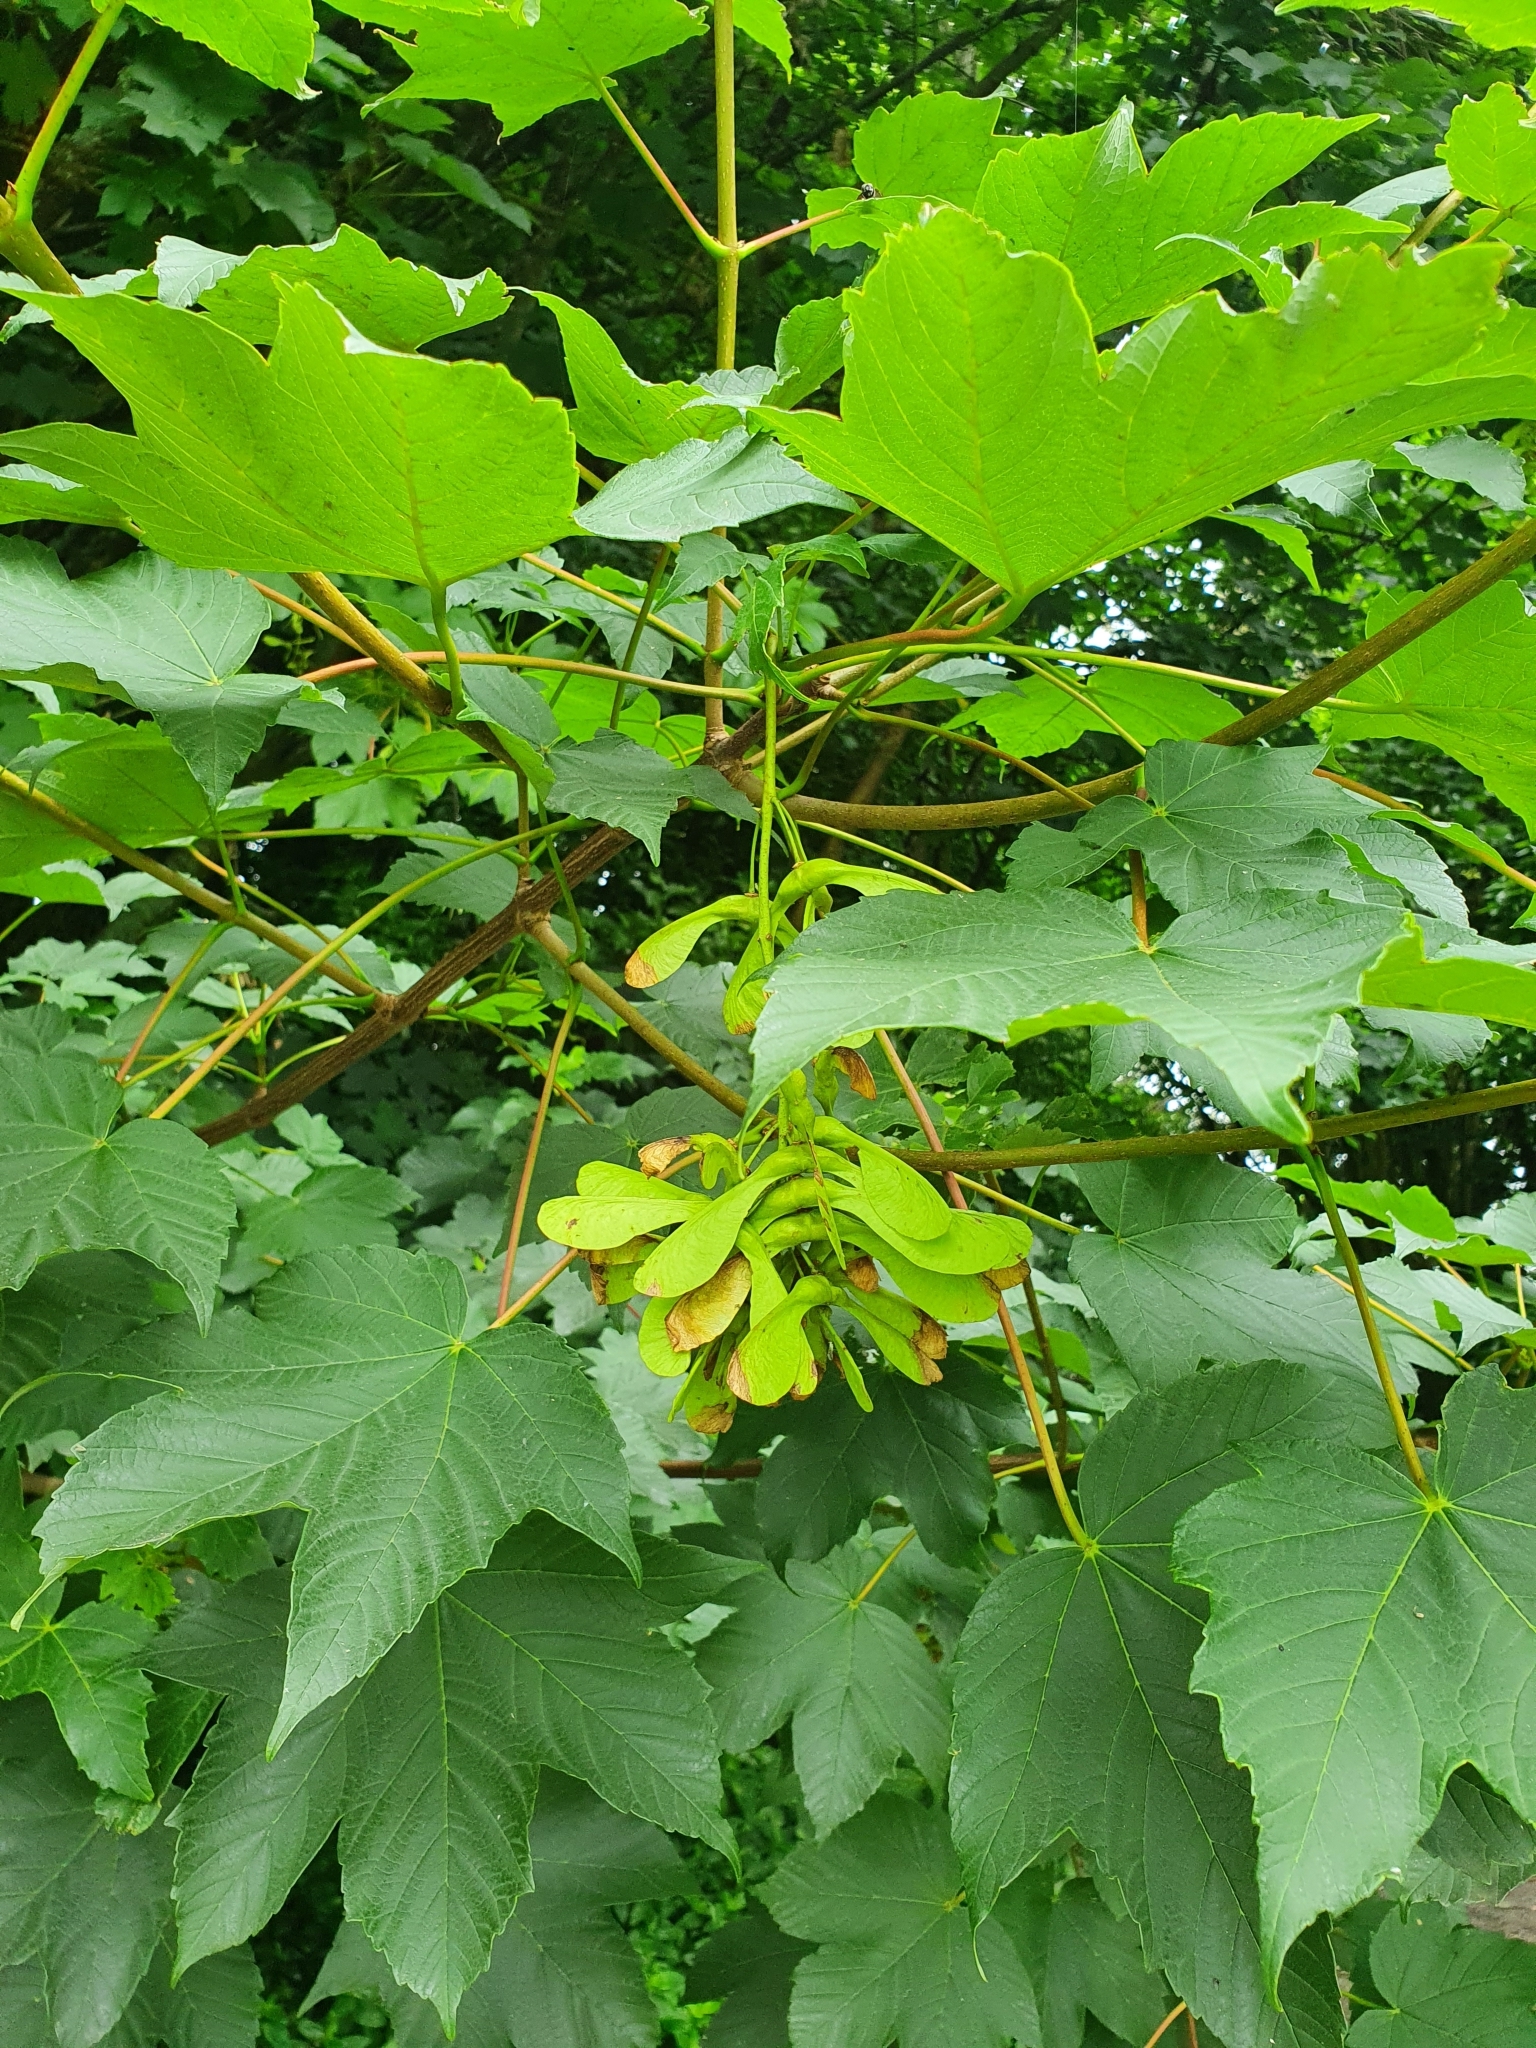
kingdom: Plantae
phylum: Tracheophyta
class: Magnoliopsida
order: Sapindales
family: Sapindaceae
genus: Acer
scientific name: Acer pseudoplatanus
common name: Sycamore
